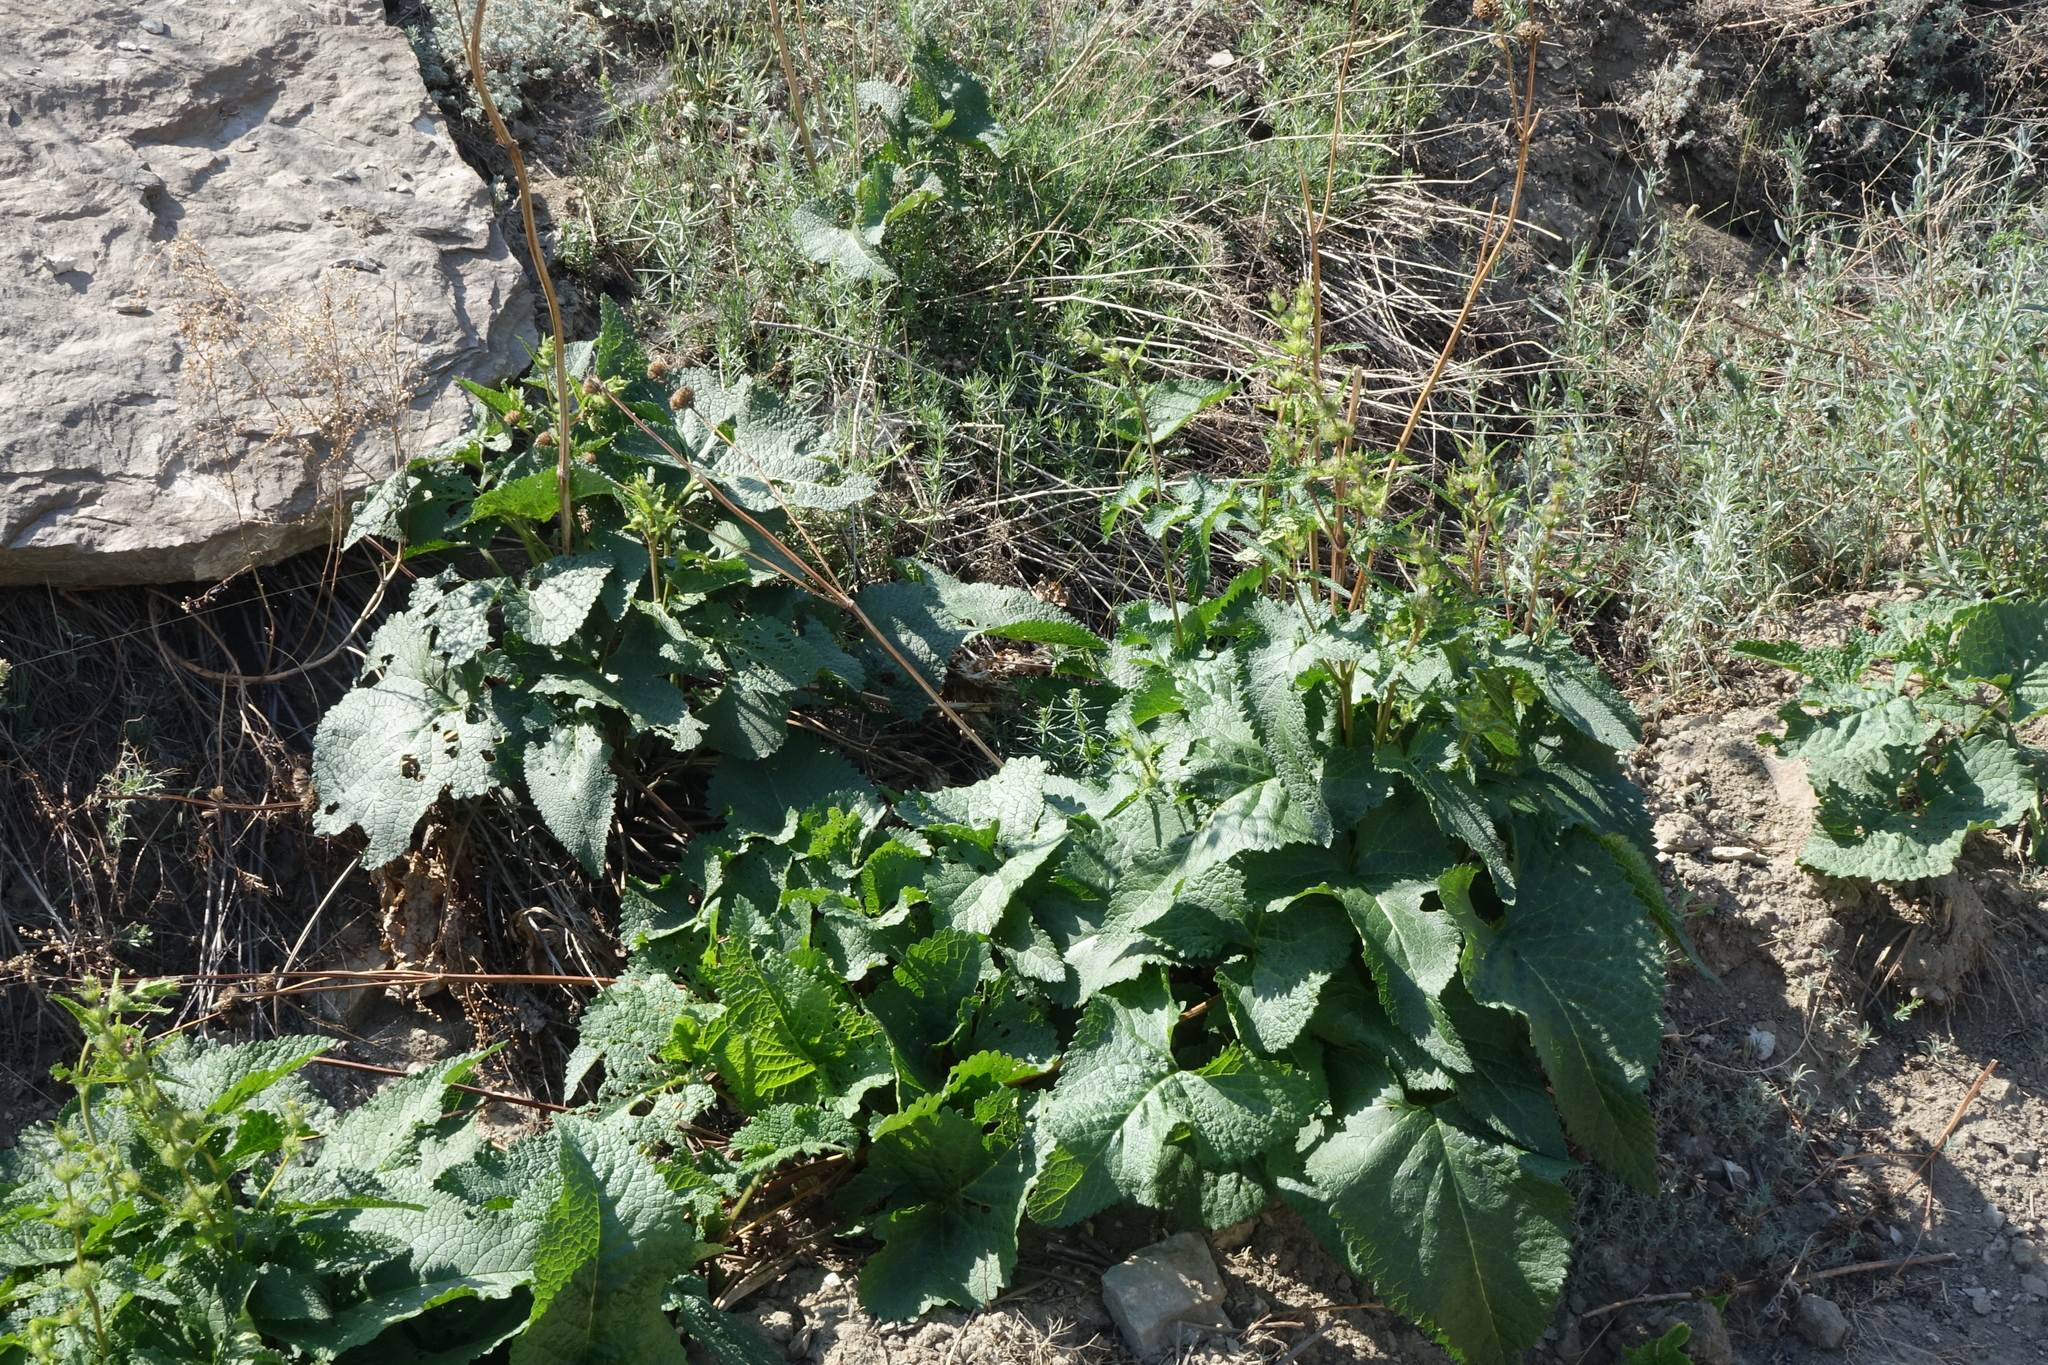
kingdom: Plantae
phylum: Tracheophyta
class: Magnoliopsida
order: Lamiales
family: Lamiaceae
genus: Phlomoides
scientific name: Phlomoides tuberosa
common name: Tuberous jerusalem sage
